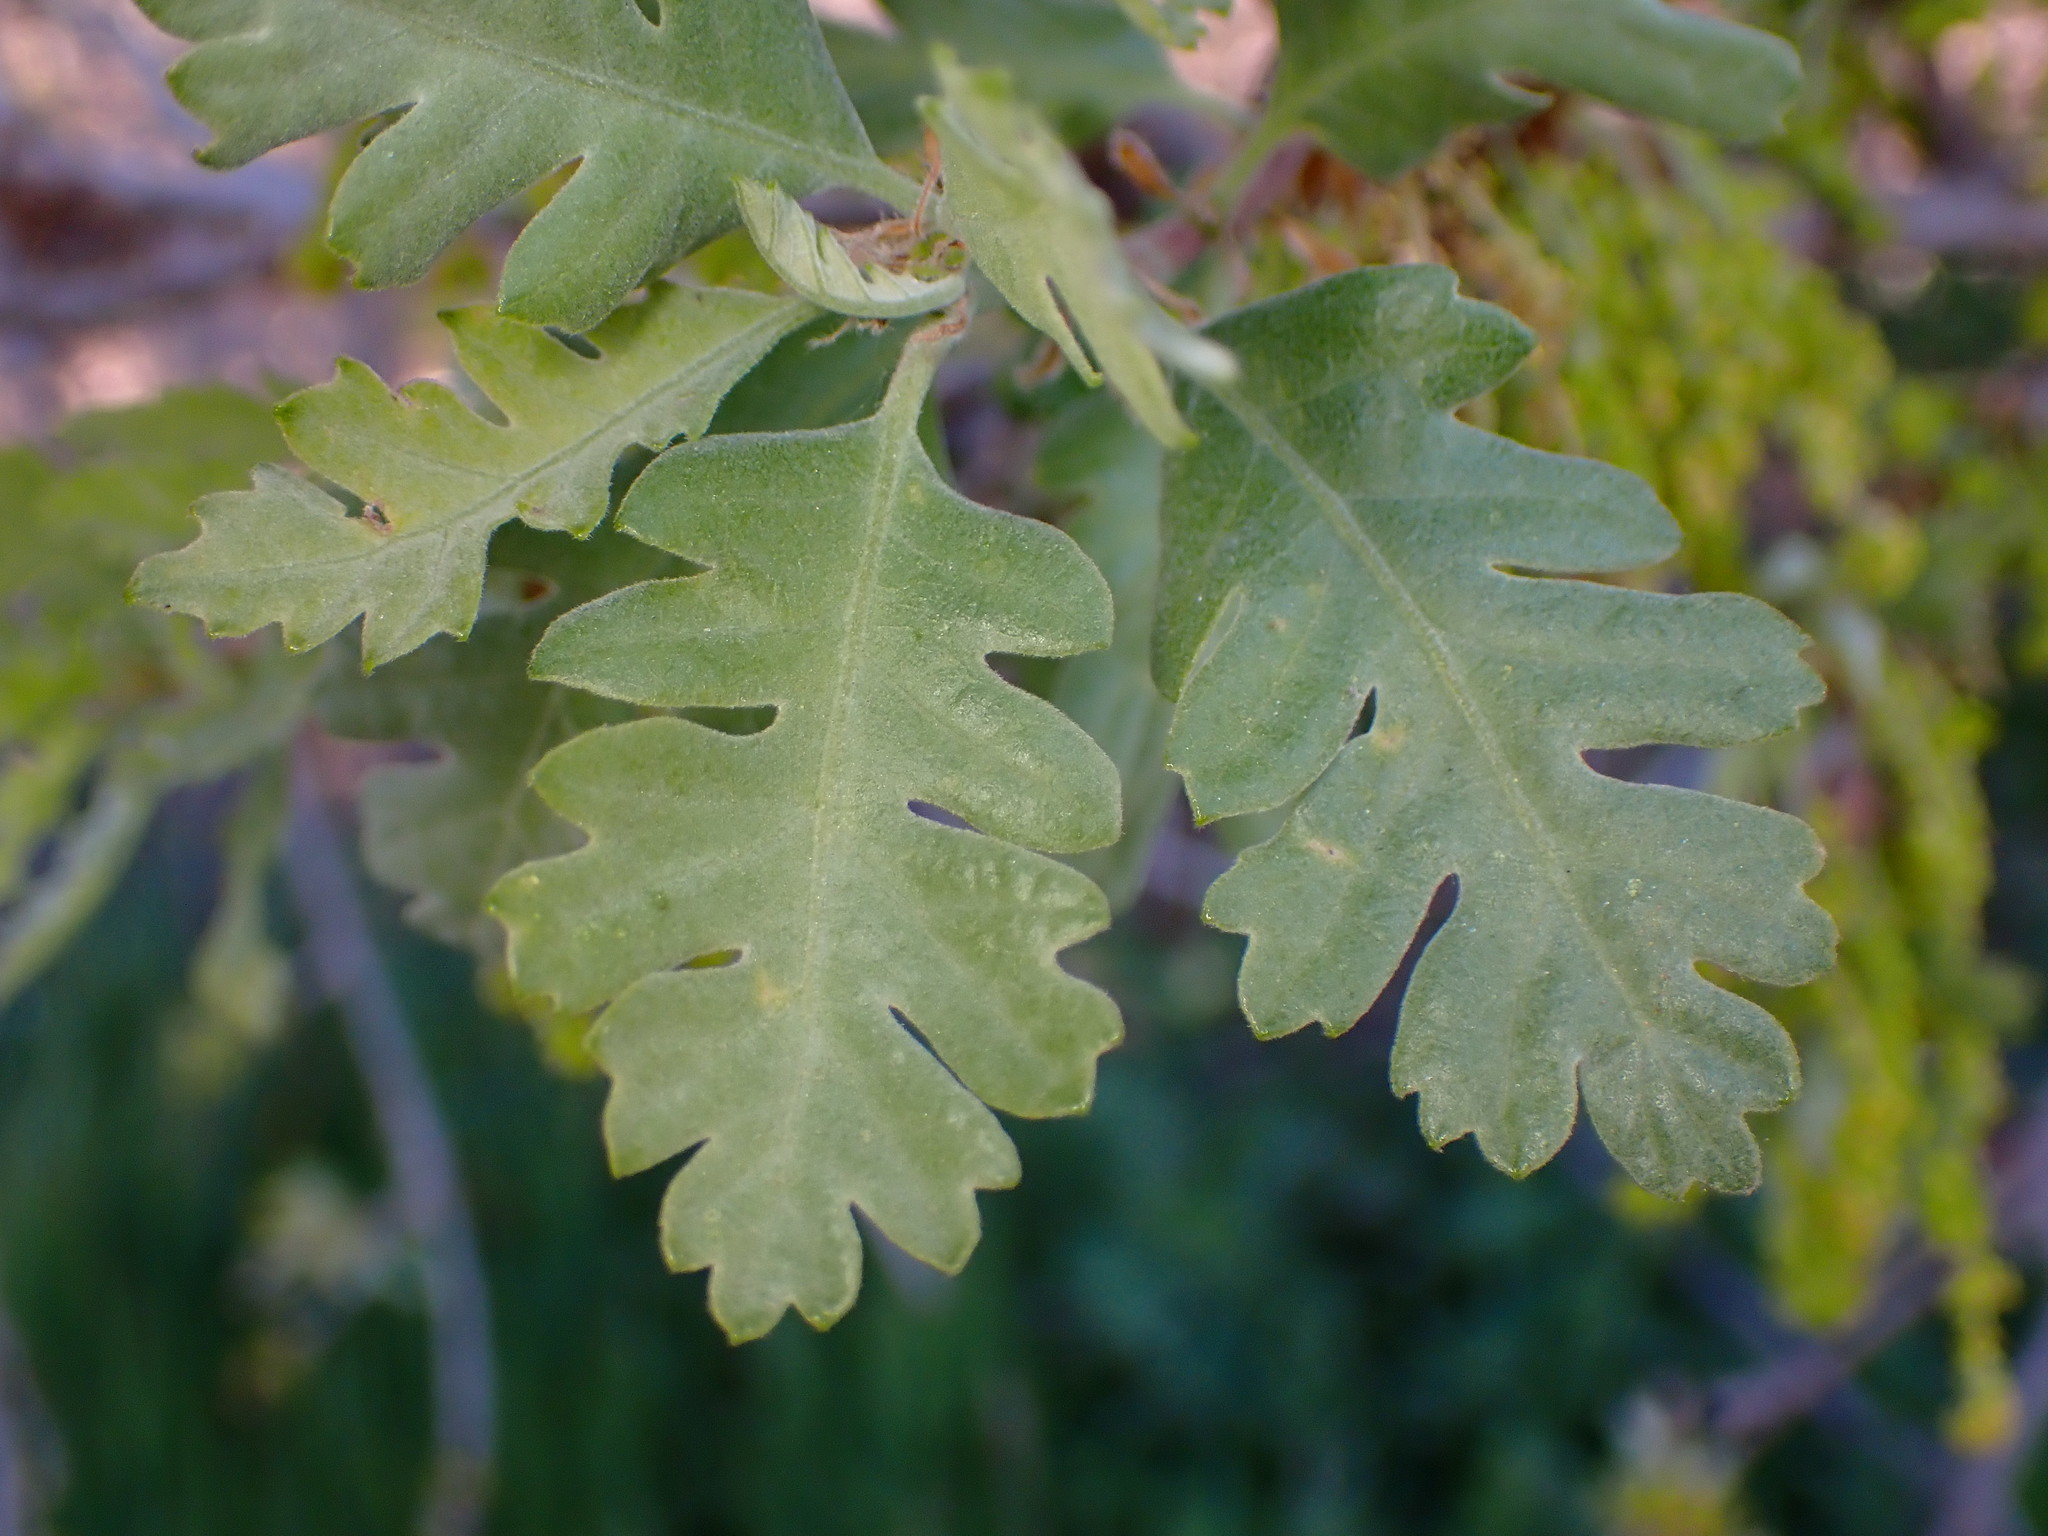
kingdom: Plantae
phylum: Tracheophyta
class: Magnoliopsida
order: Fagales
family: Fagaceae
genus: Quercus
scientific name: Quercus lobata
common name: Valley oak
